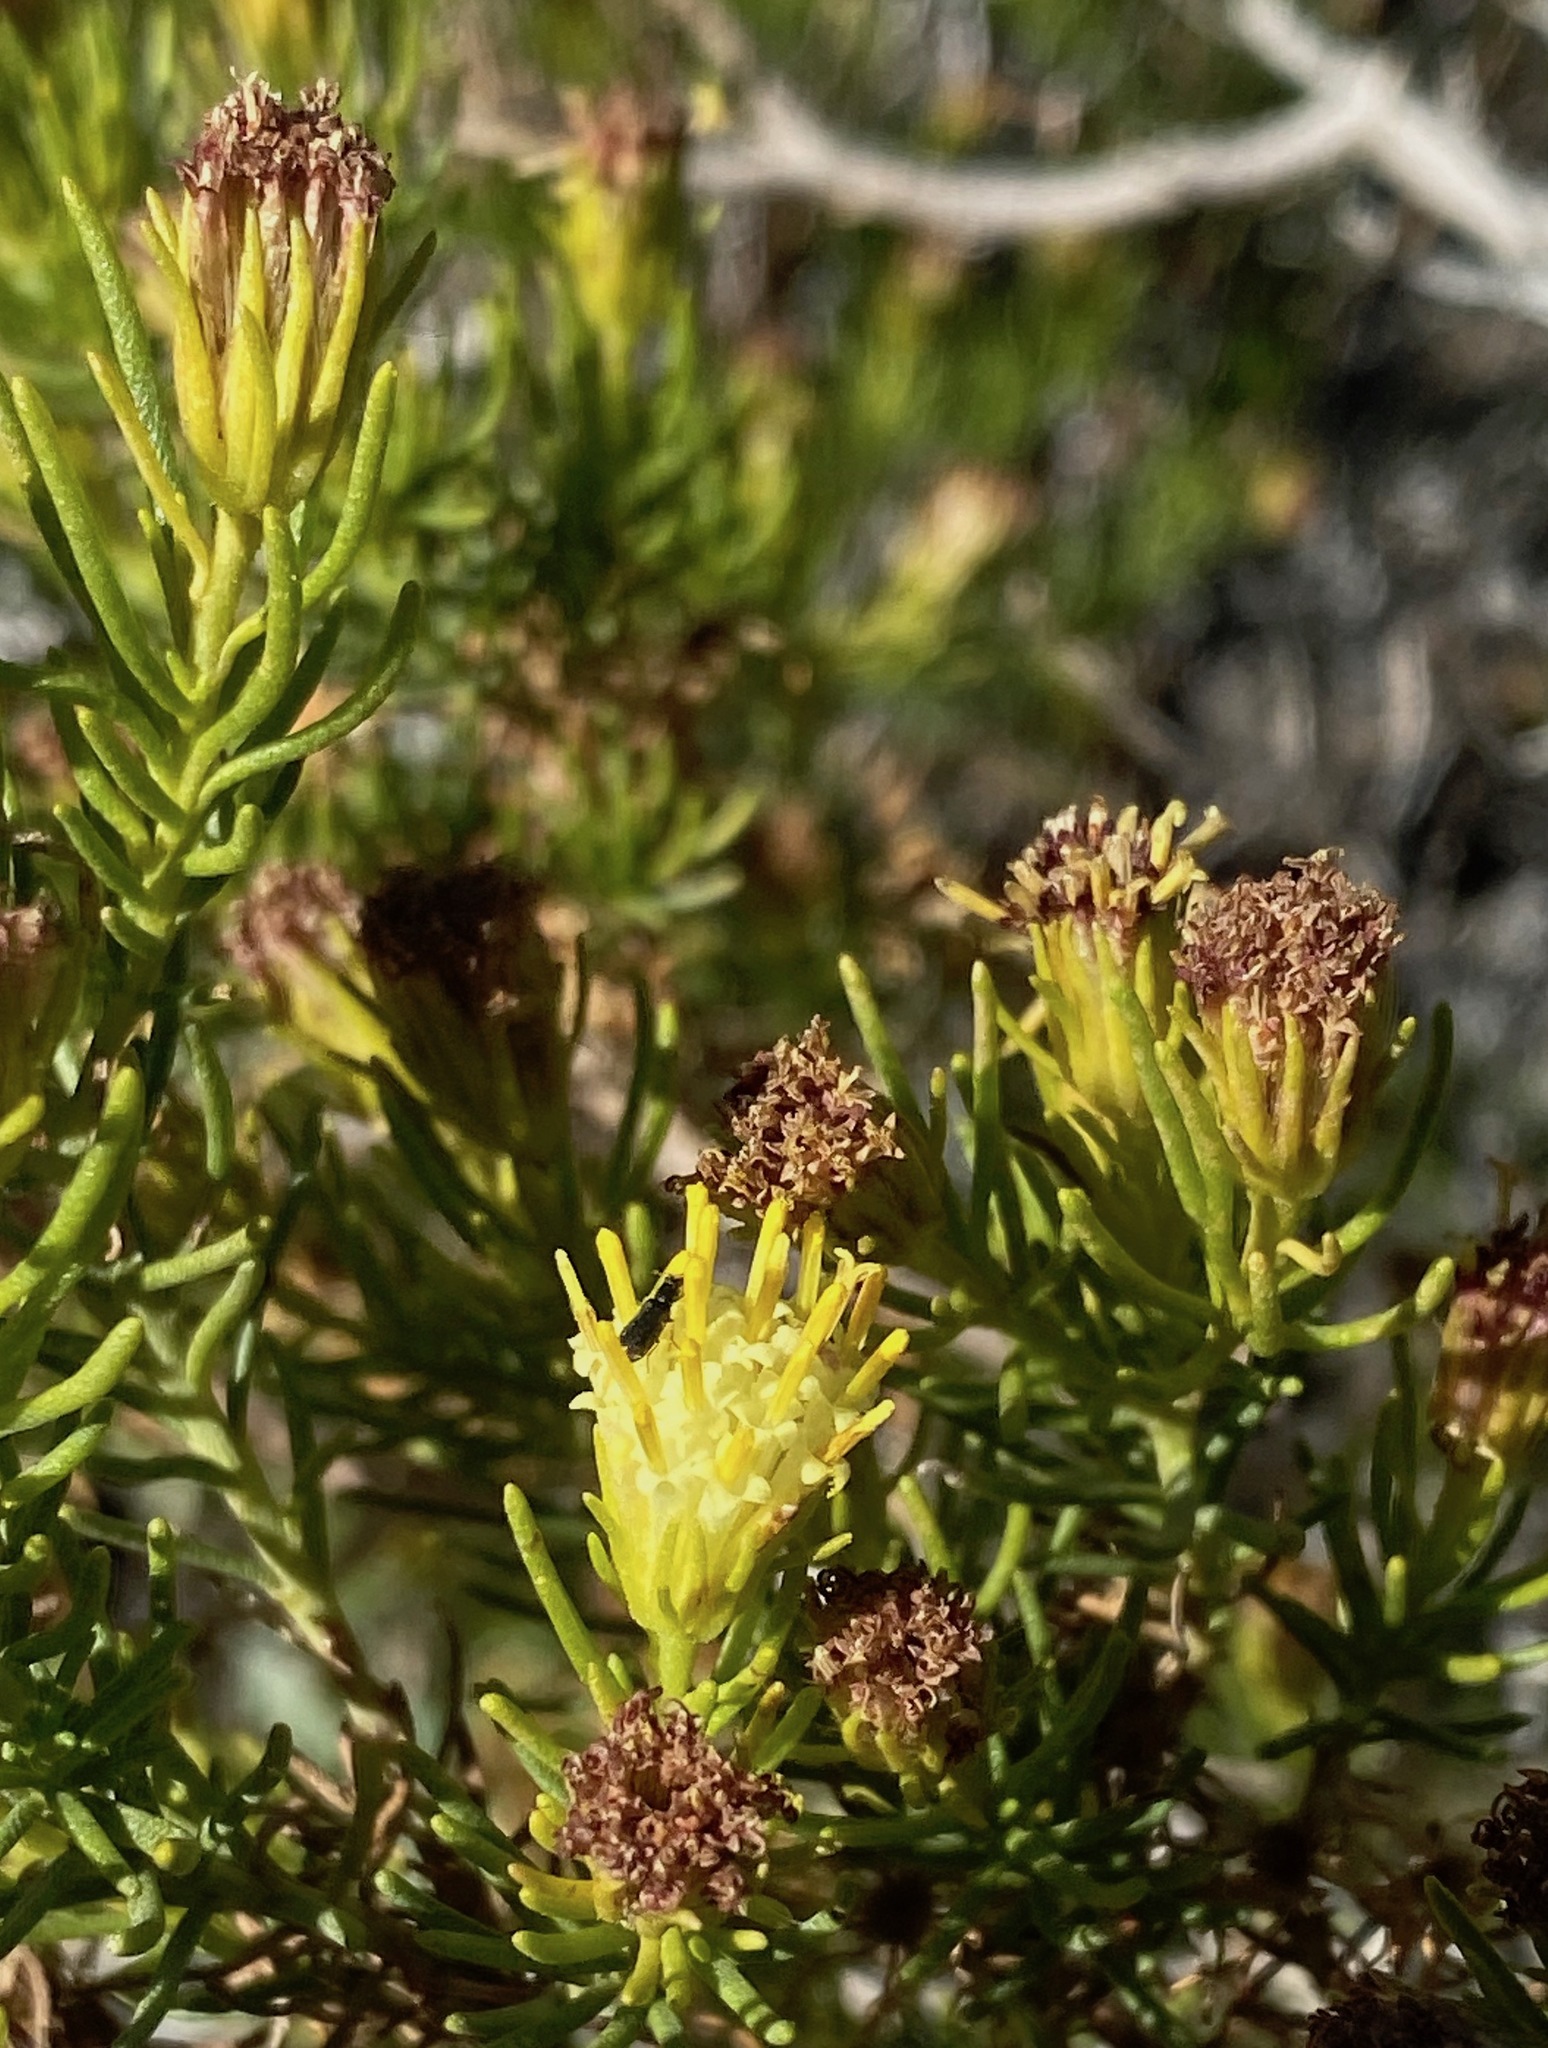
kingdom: Plantae
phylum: Tracheophyta
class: Magnoliopsida
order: Asterales
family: Asteraceae
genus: Peucephyllum
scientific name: Peucephyllum schottii
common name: Pygmy-cedar
